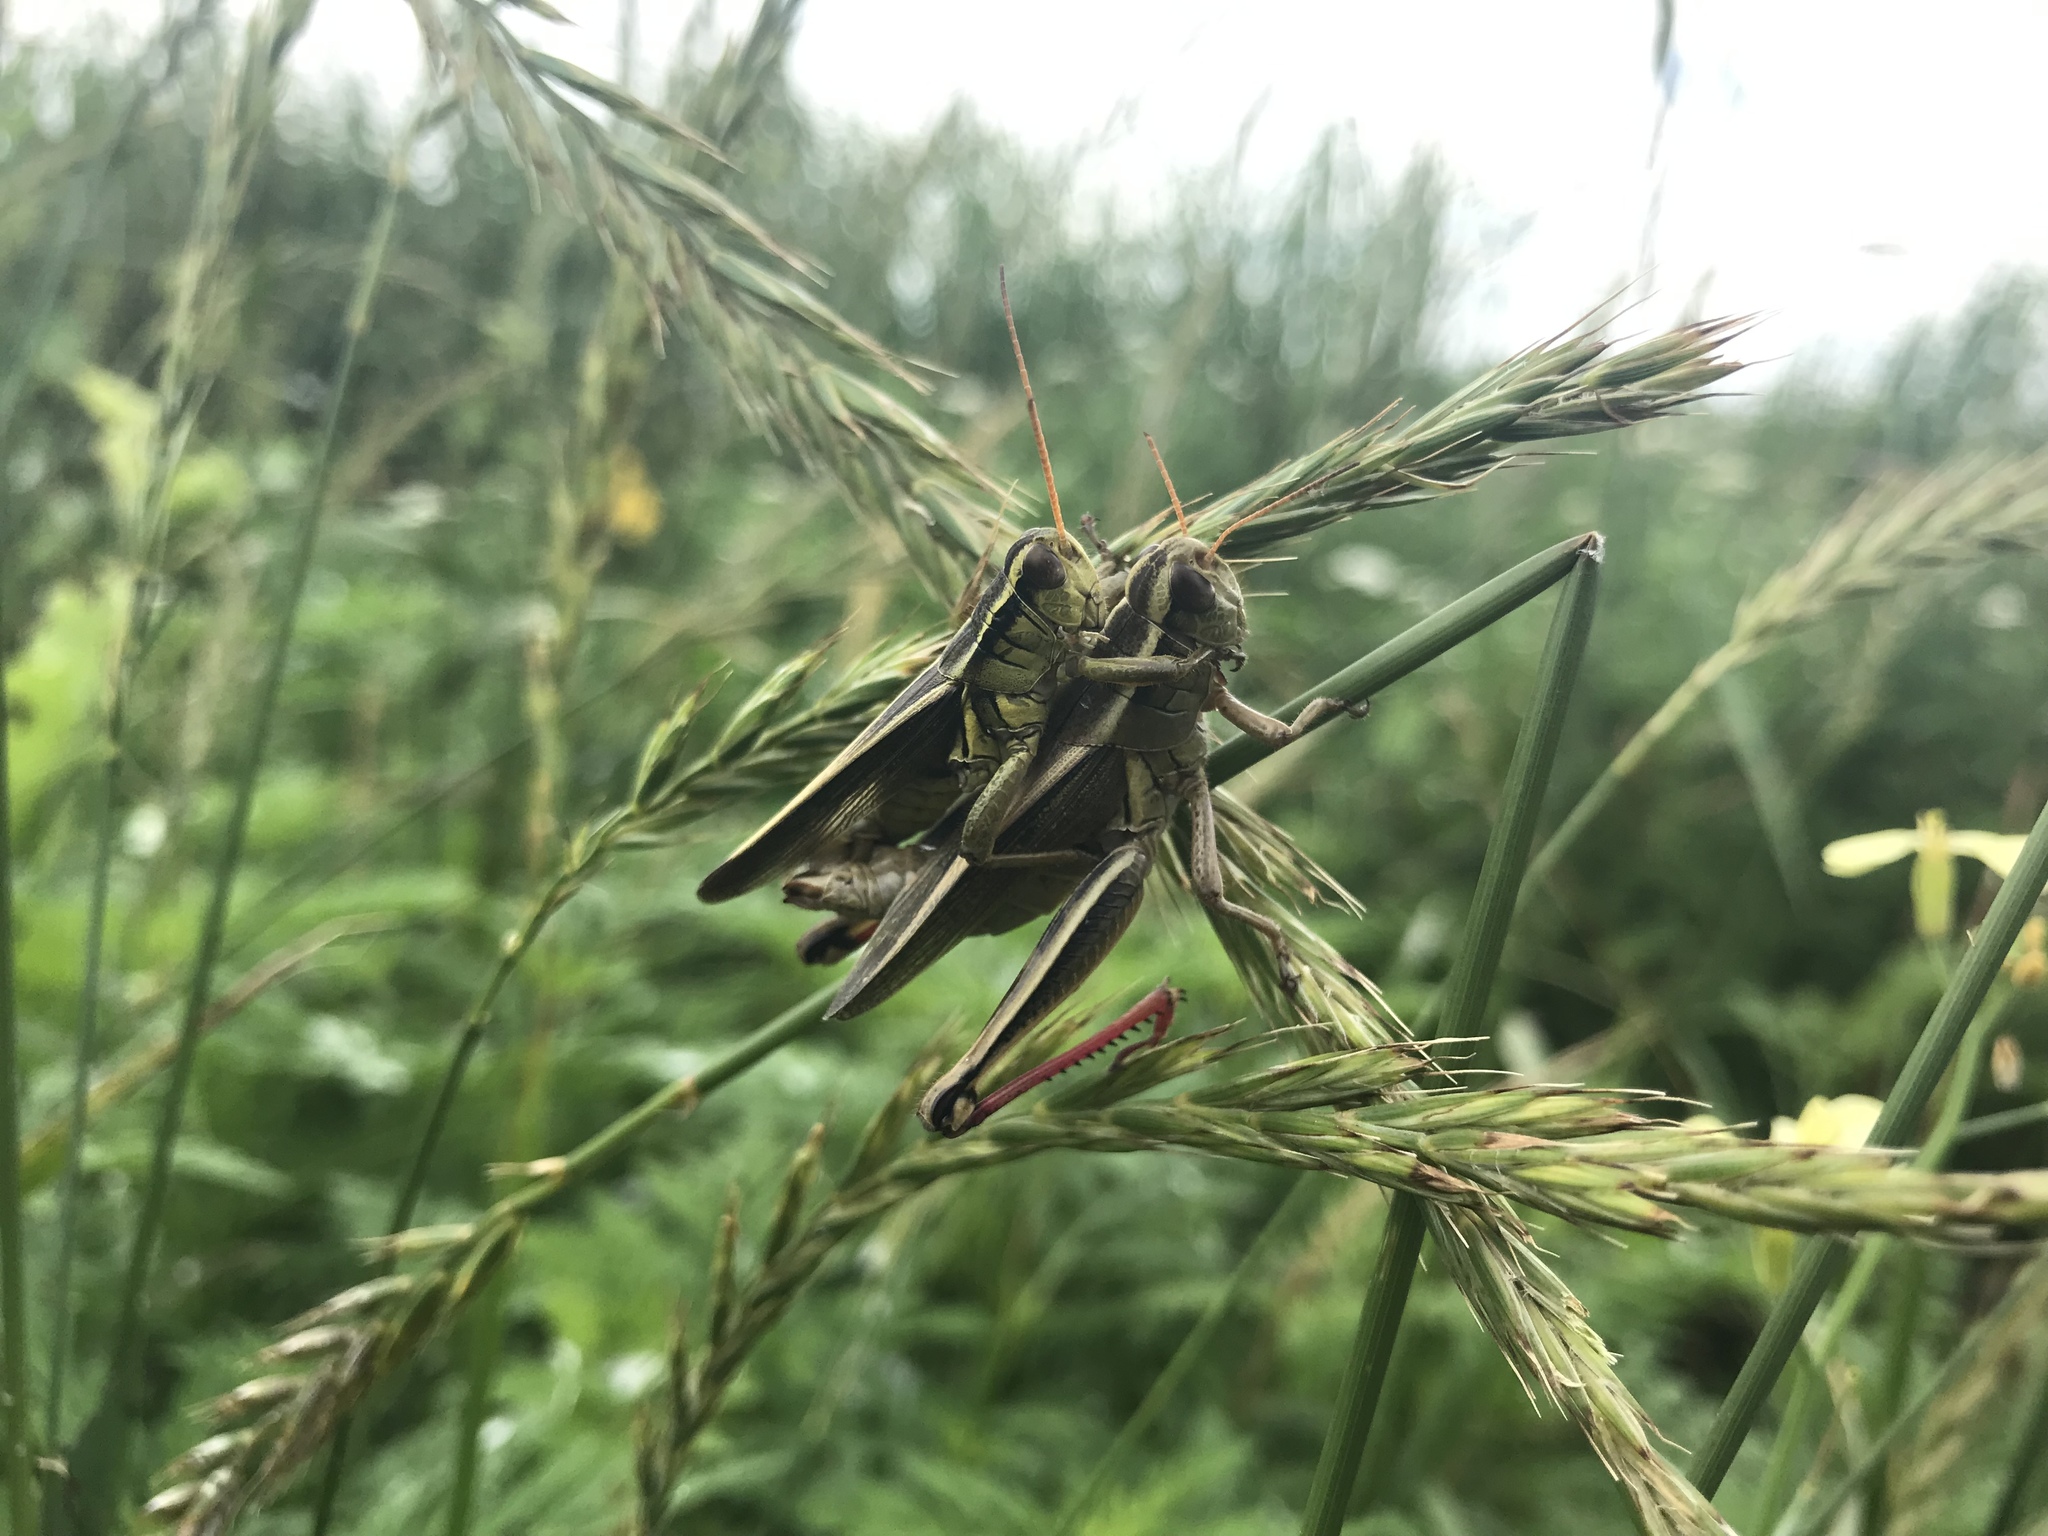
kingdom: Animalia
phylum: Arthropoda
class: Insecta
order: Orthoptera
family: Acrididae
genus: Melanoplus
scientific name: Melanoplus bivittatus
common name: Two-striped grasshopper
